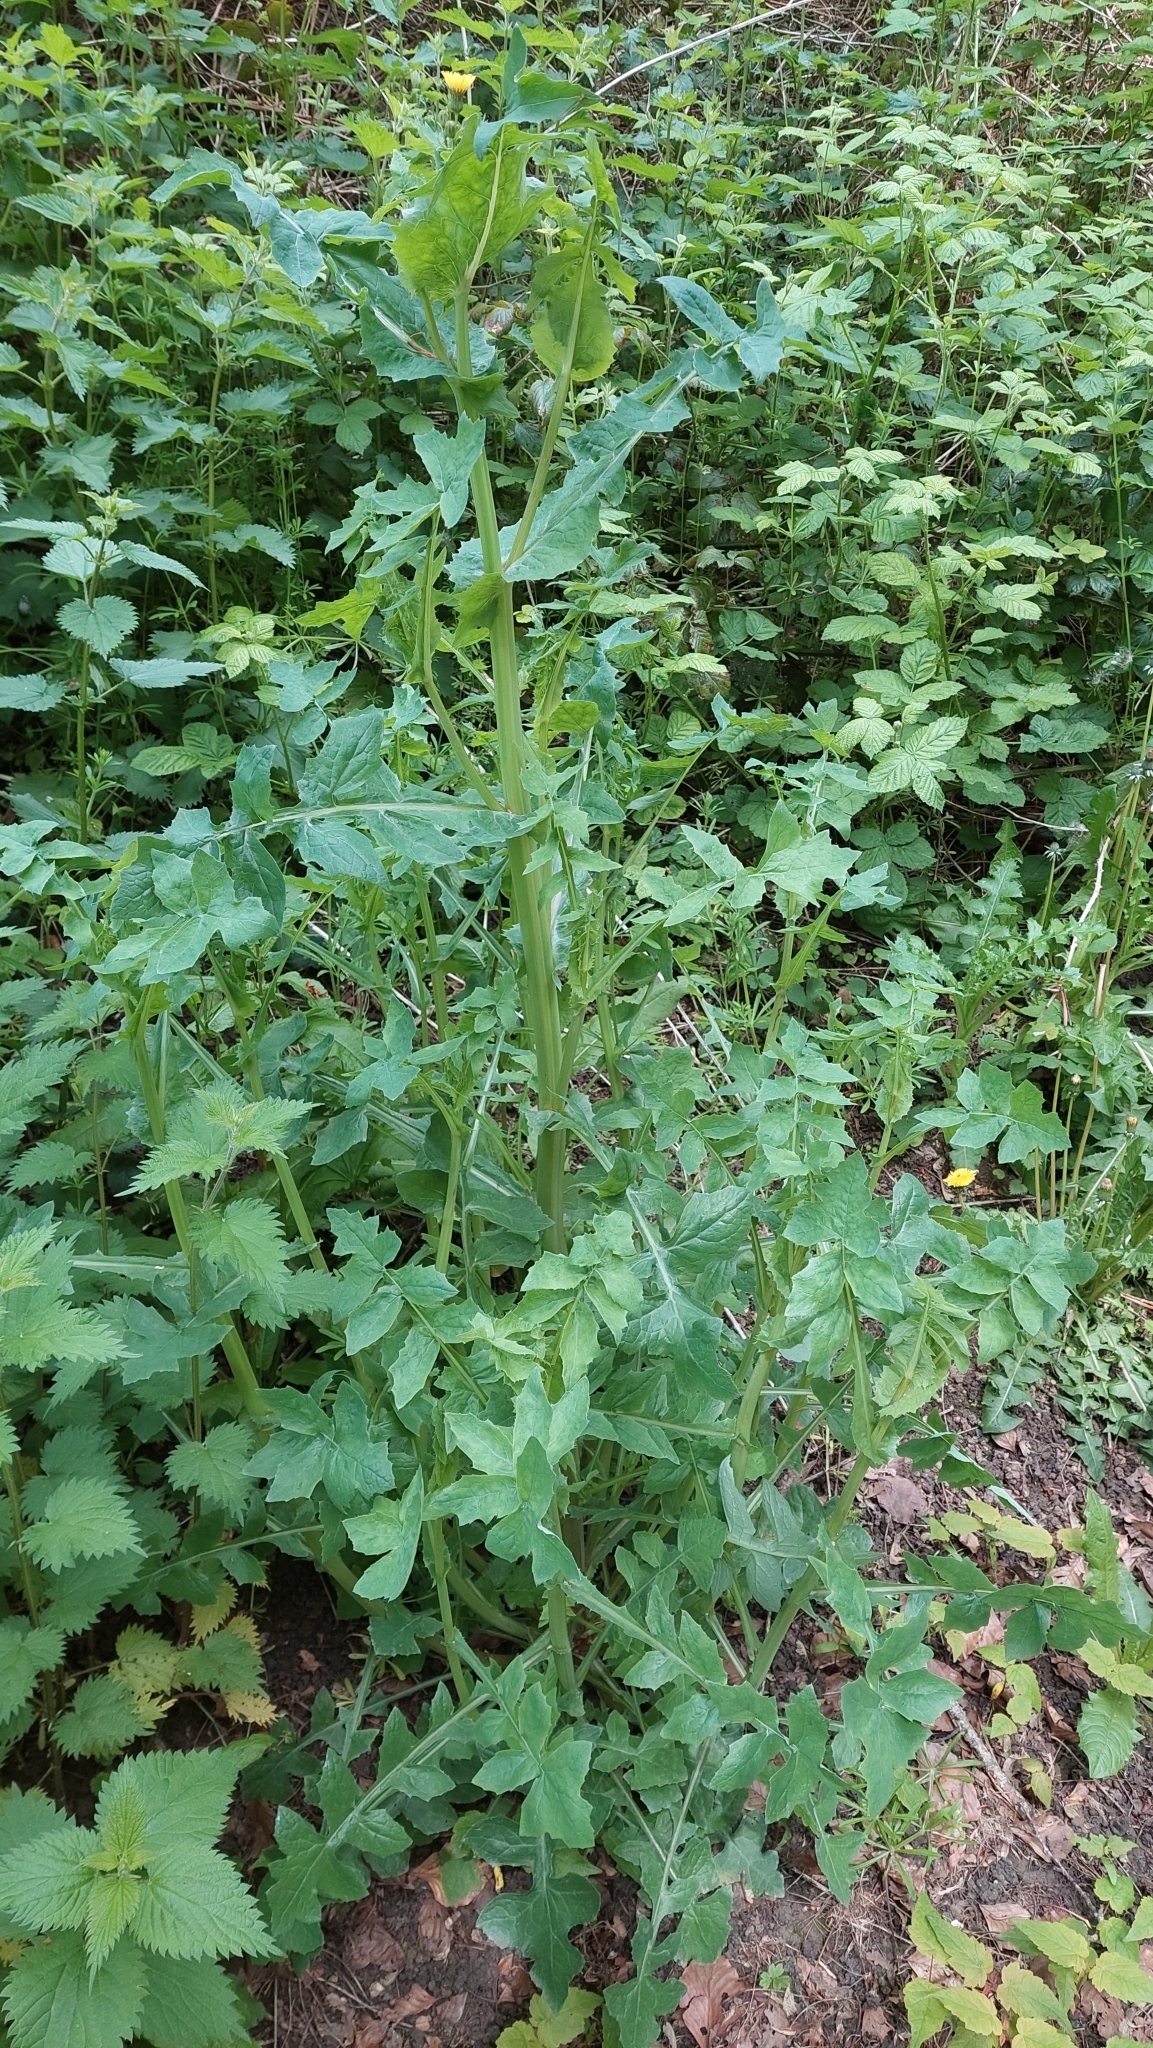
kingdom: Plantae
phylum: Tracheophyta
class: Magnoliopsida
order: Asterales
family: Asteraceae
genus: Sonchus
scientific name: Sonchus oleraceus
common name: Common sowthistle
